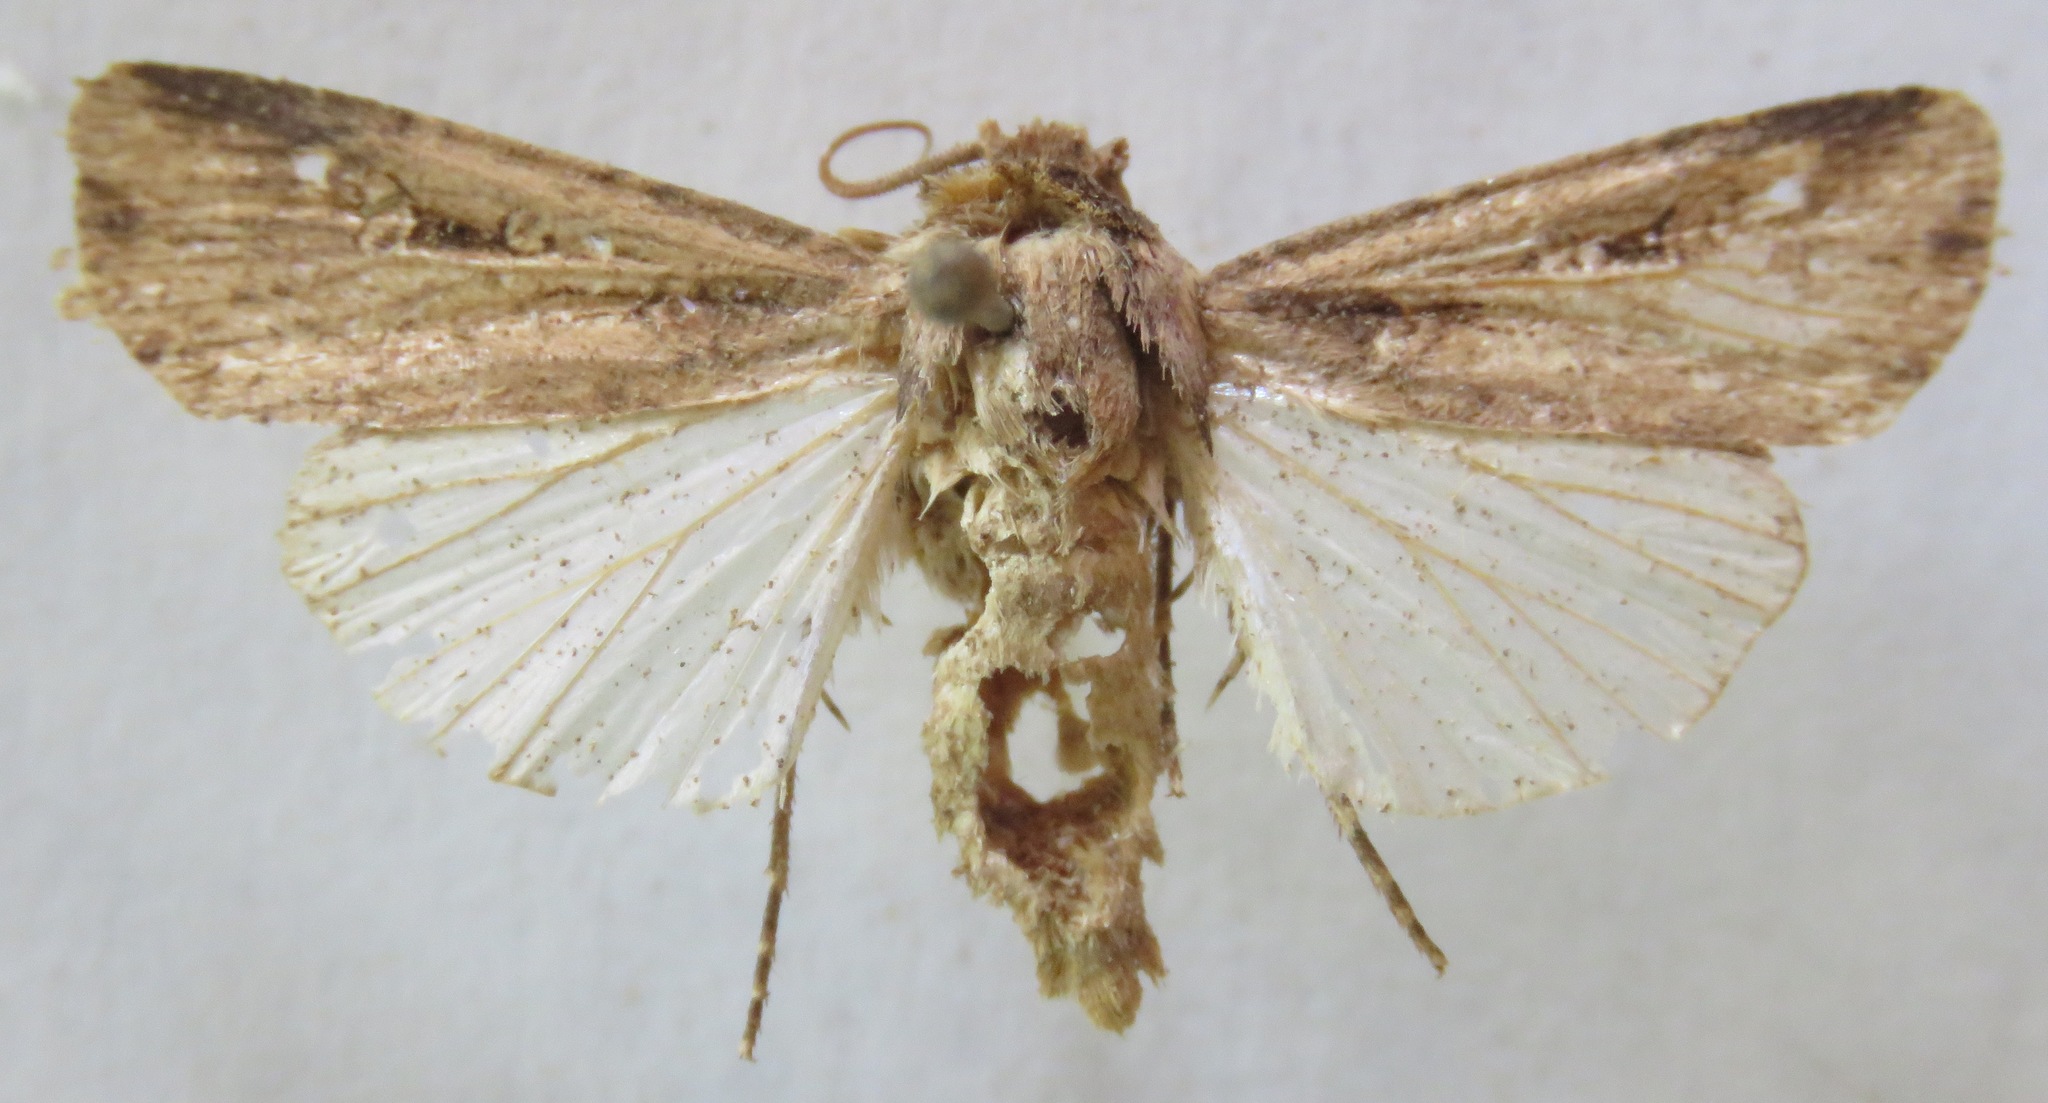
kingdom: Animalia
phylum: Arthropoda
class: Insecta
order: Lepidoptera
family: Noctuidae
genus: Feltia
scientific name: Feltia subterranea
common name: Granulate cutworm
